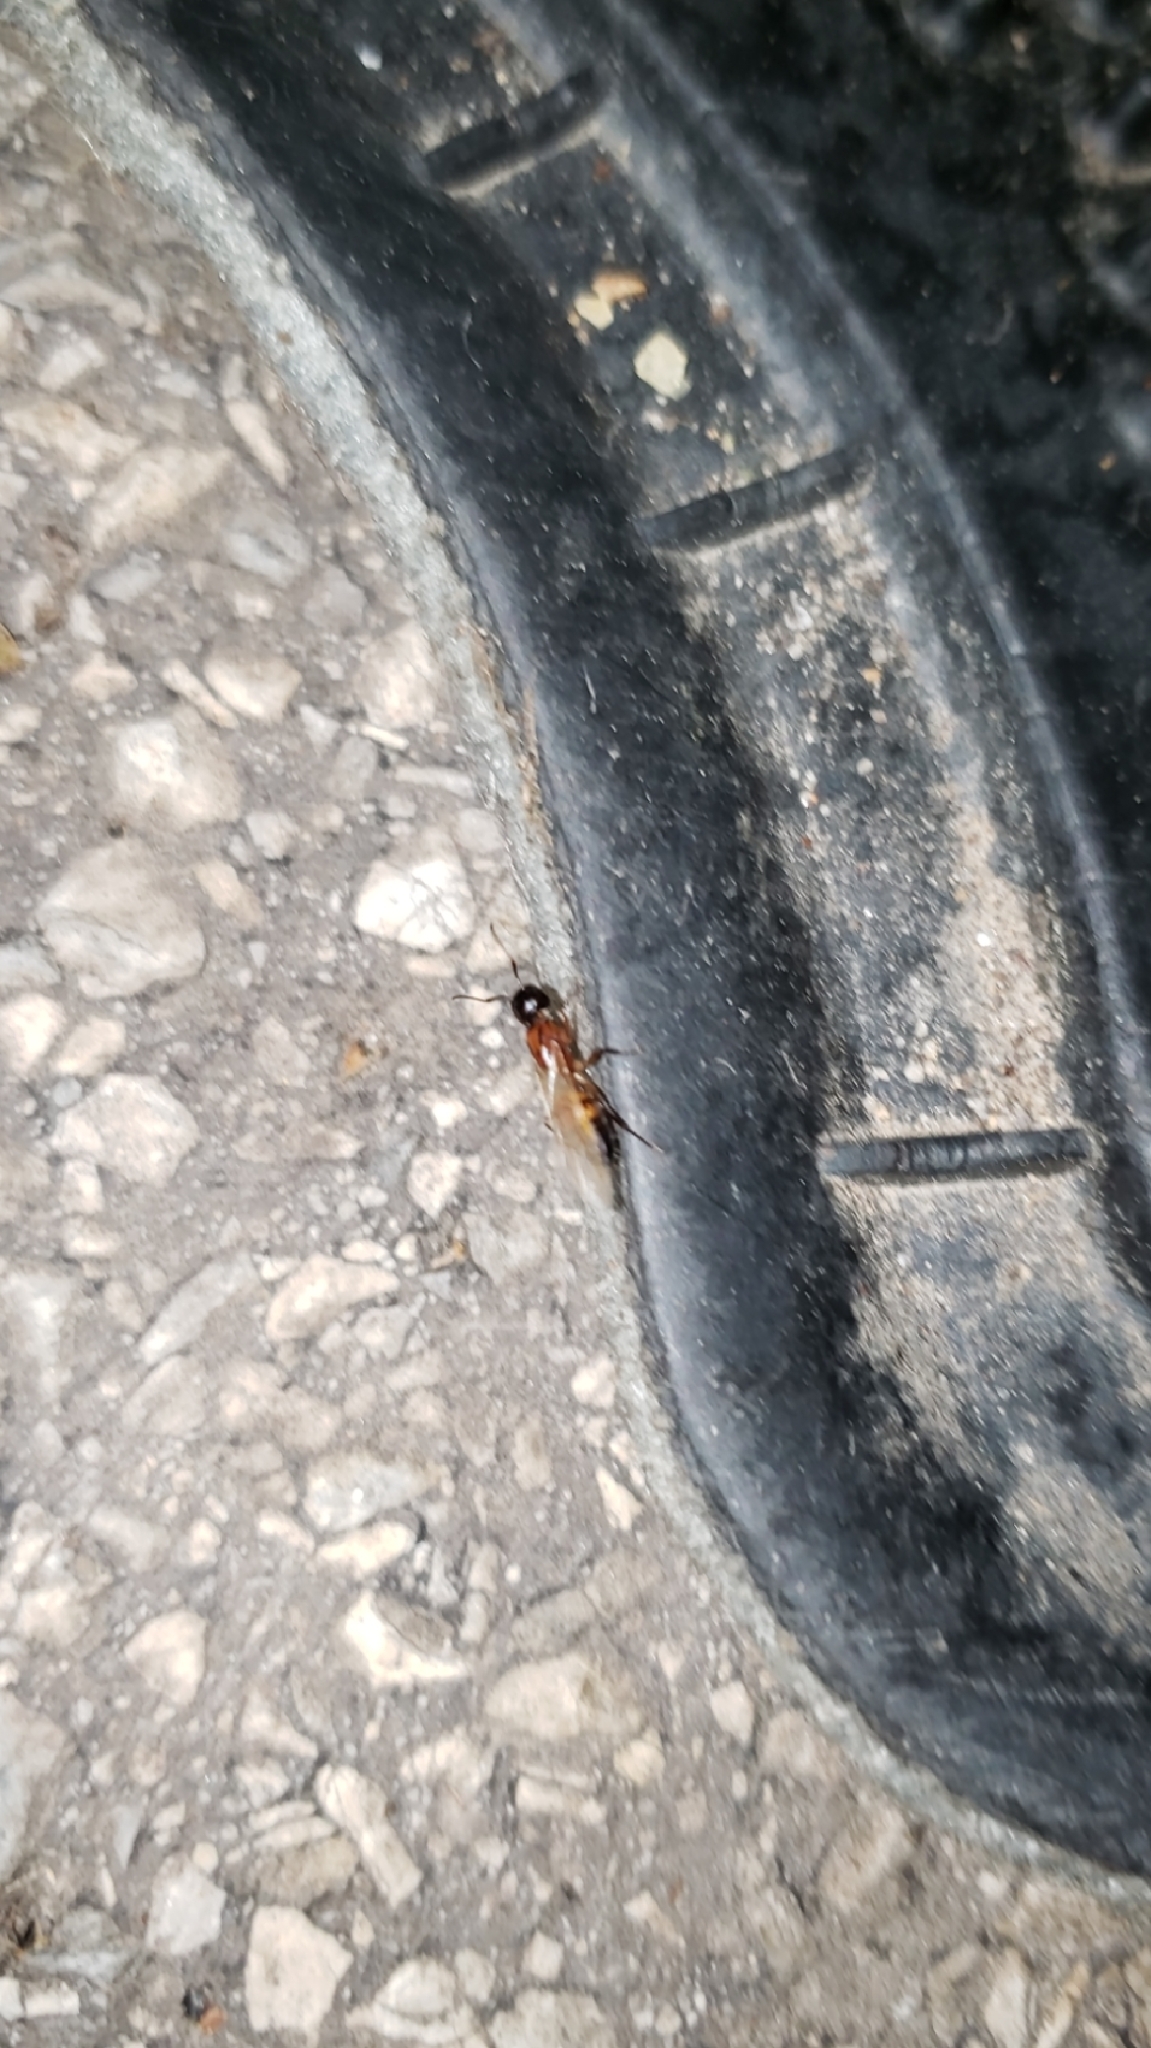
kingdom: Animalia
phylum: Arthropoda
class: Insecta
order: Hymenoptera
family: Formicidae
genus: Camponotus
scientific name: Camponotus nearcticus
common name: Smaller carpenter ant
